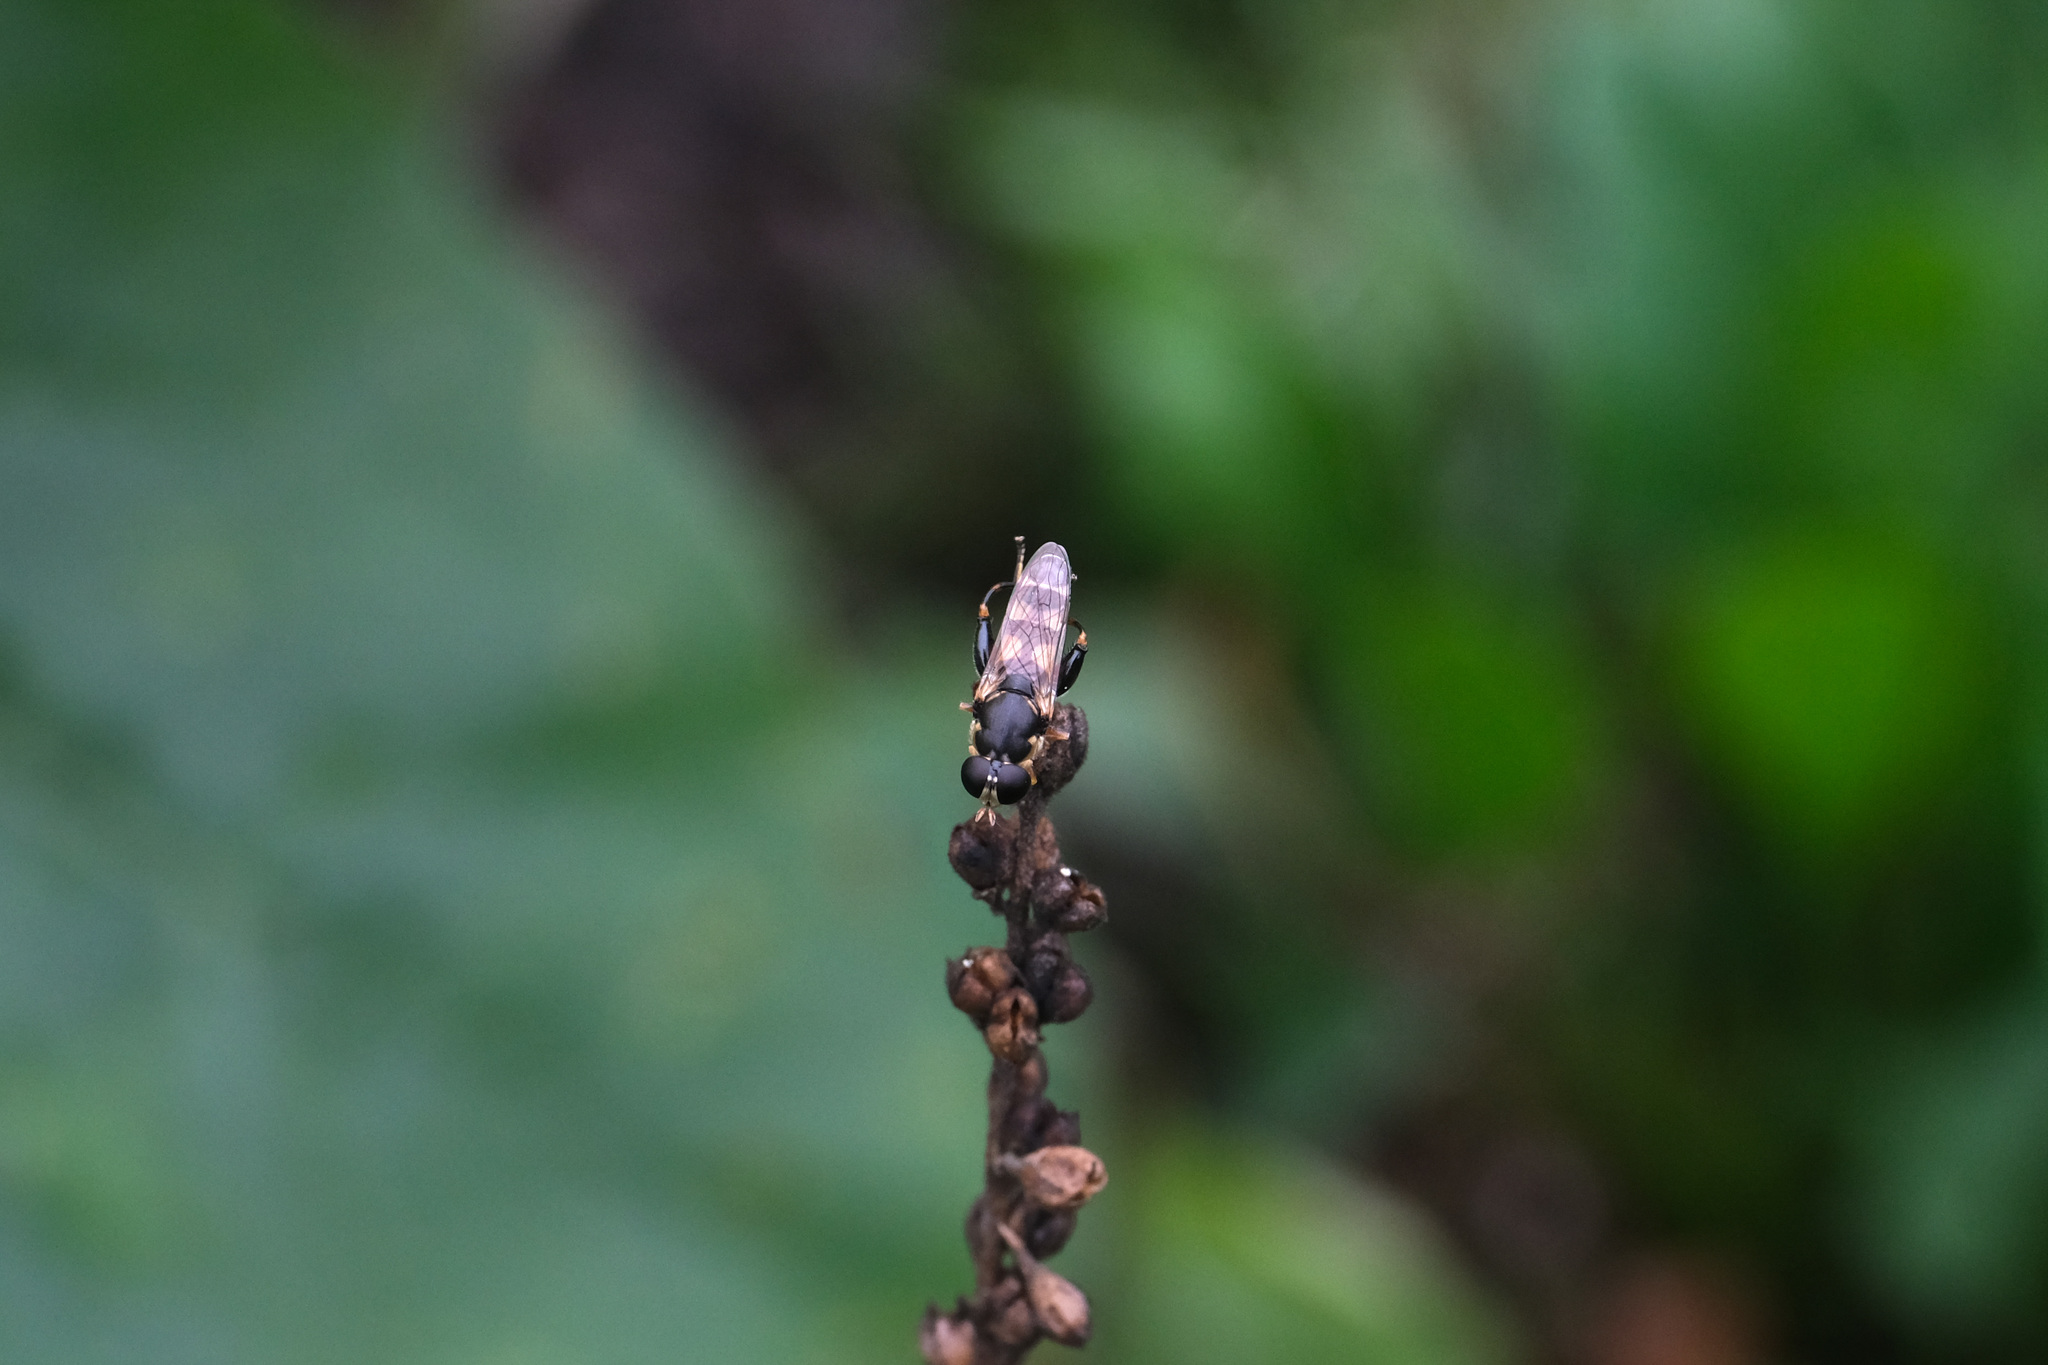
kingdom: Animalia
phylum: Arthropoda
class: Insecta
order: Diptera
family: Syrphidae
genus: Syritta
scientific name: Syritta pipiens
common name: Hover fly
